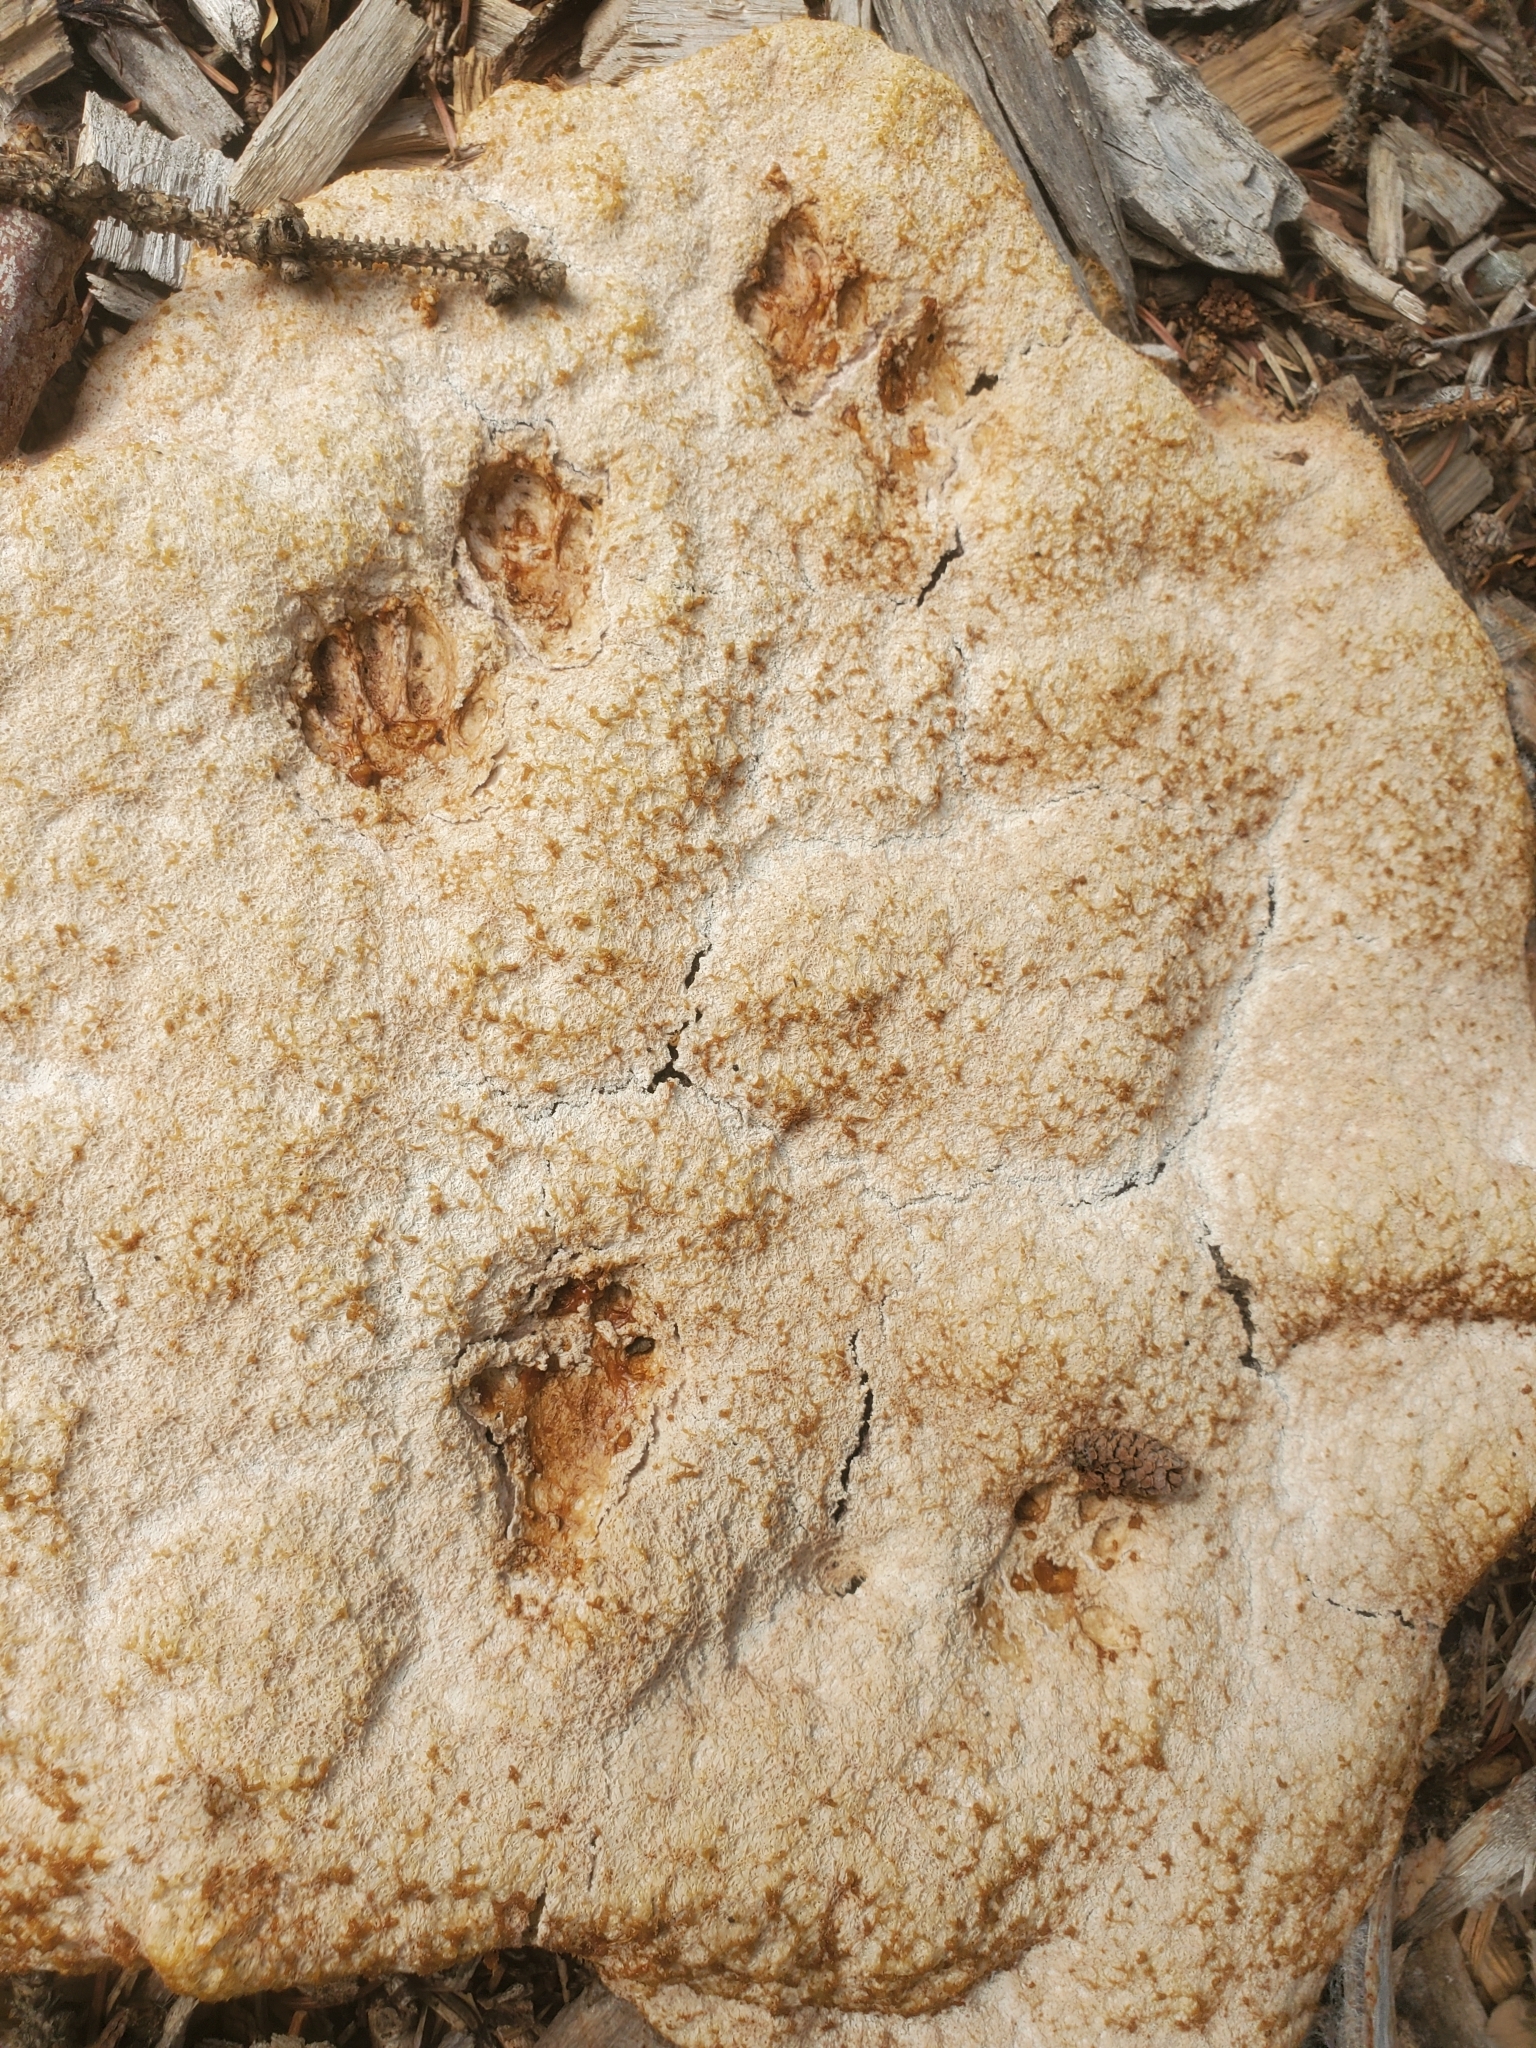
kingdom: Animalia
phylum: Chordata
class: Mammalia
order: Rodentia
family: Sciuridae
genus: Tamiasciurus
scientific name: Tamiasciurus hudsonicus
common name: Red squirrel
